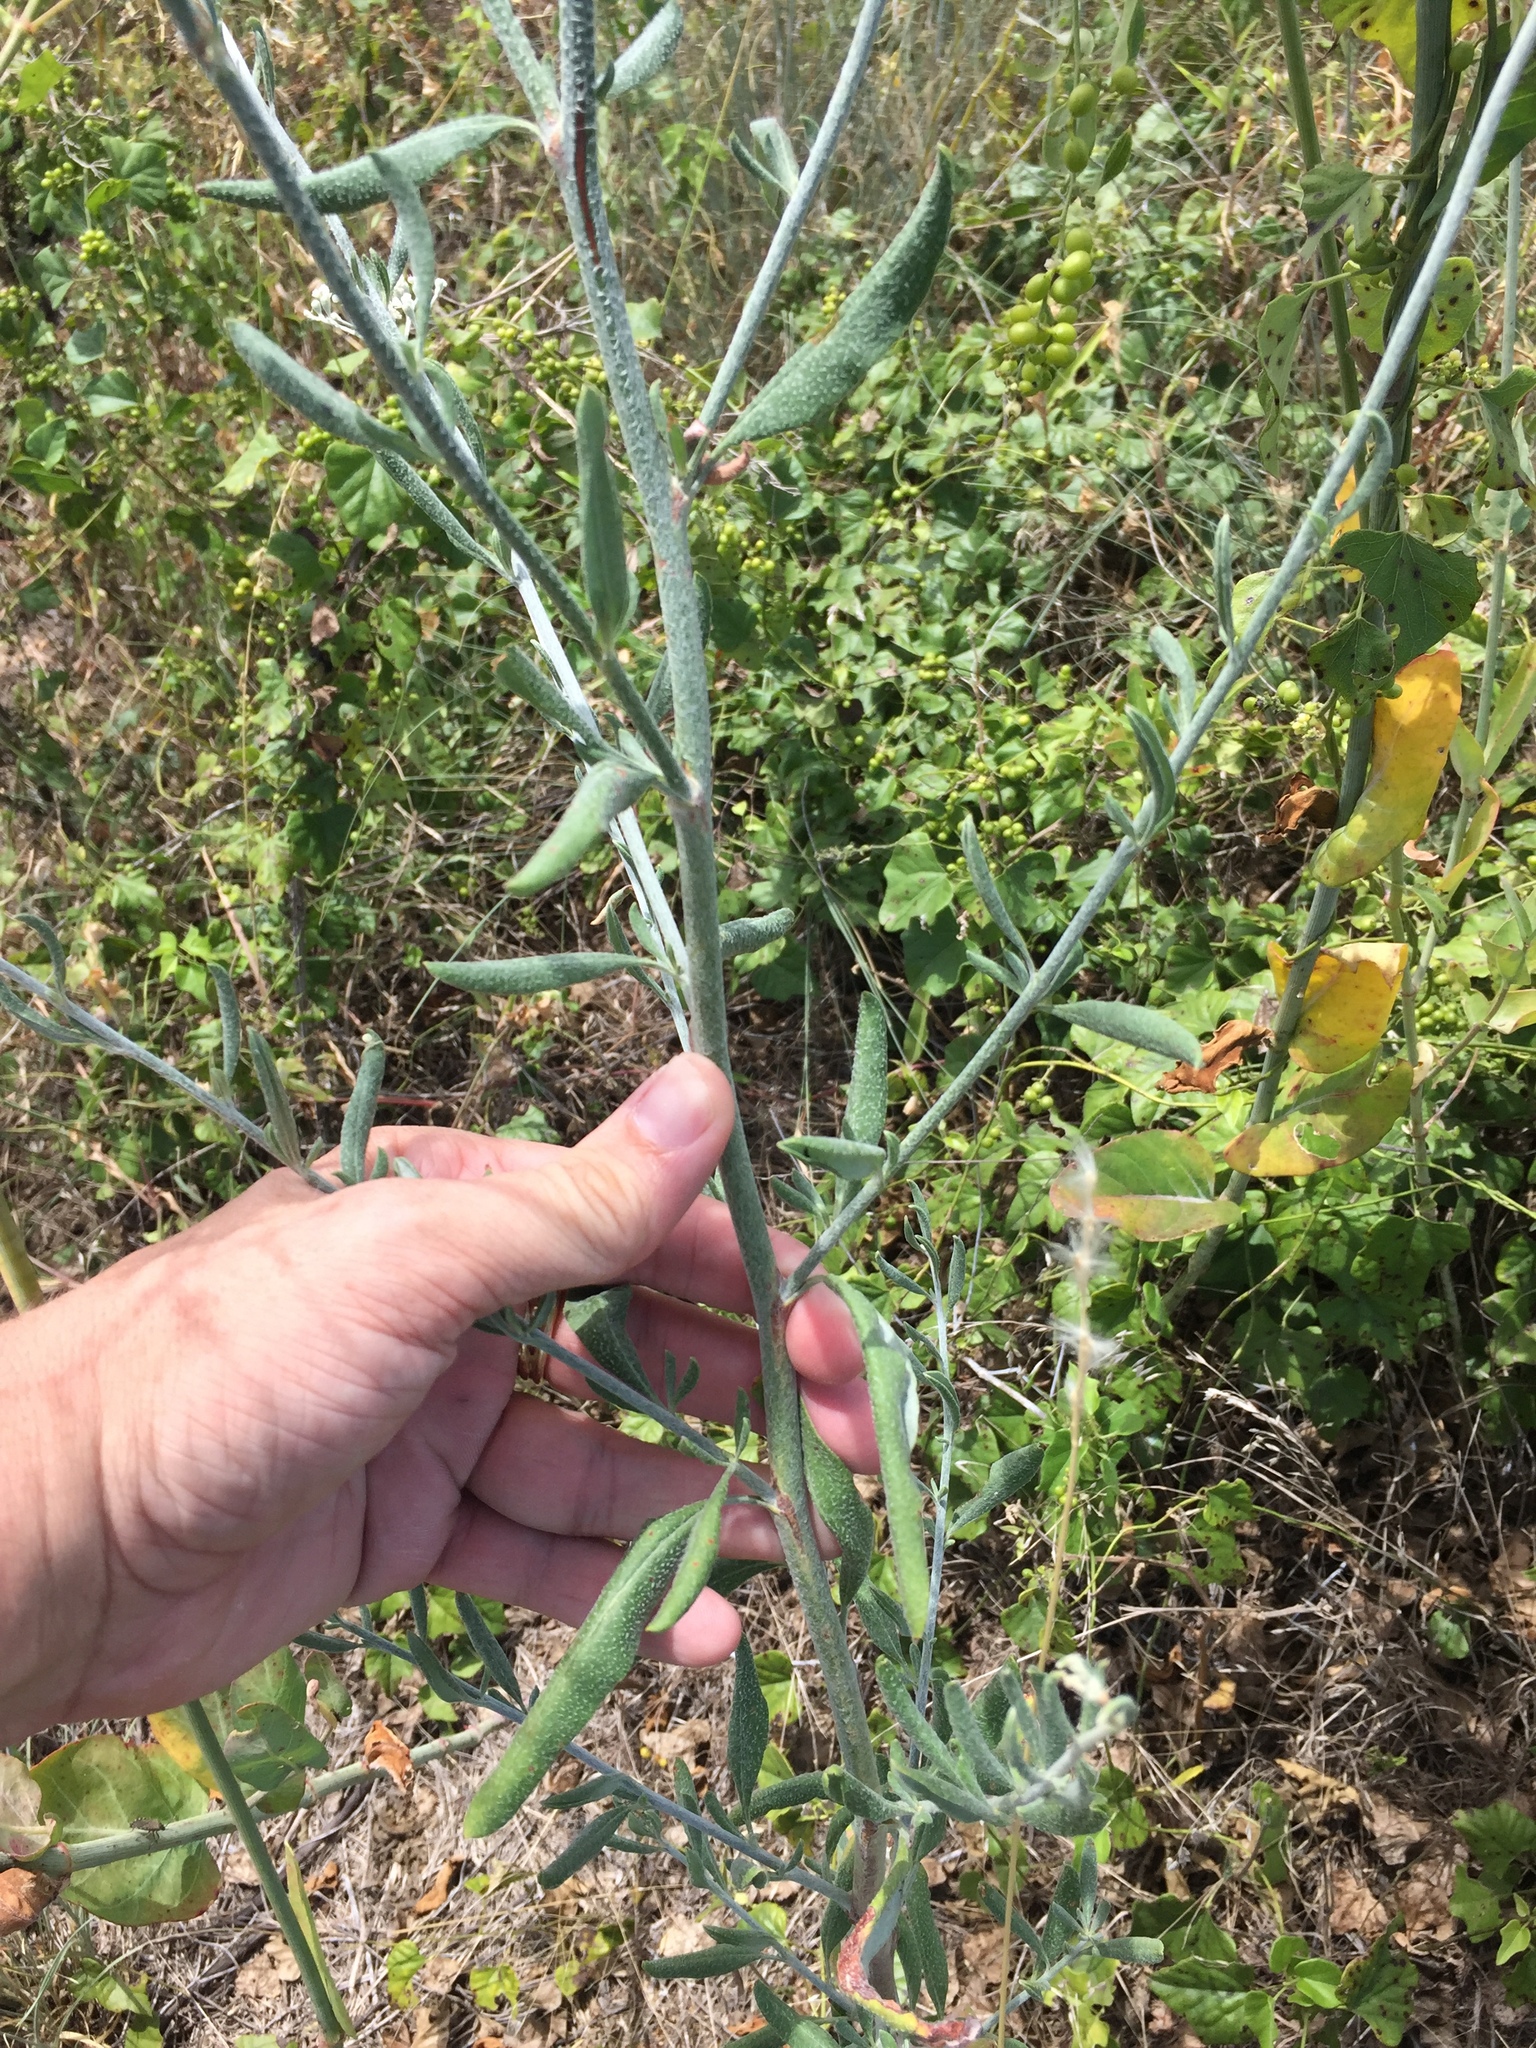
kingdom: Plantae
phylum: Tracheophyta
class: Magnoliopsida
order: Caryophyllales
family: Polygonaceae
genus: Eriogonum
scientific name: Eriogonum annuum
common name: Annual wild buckwheat
